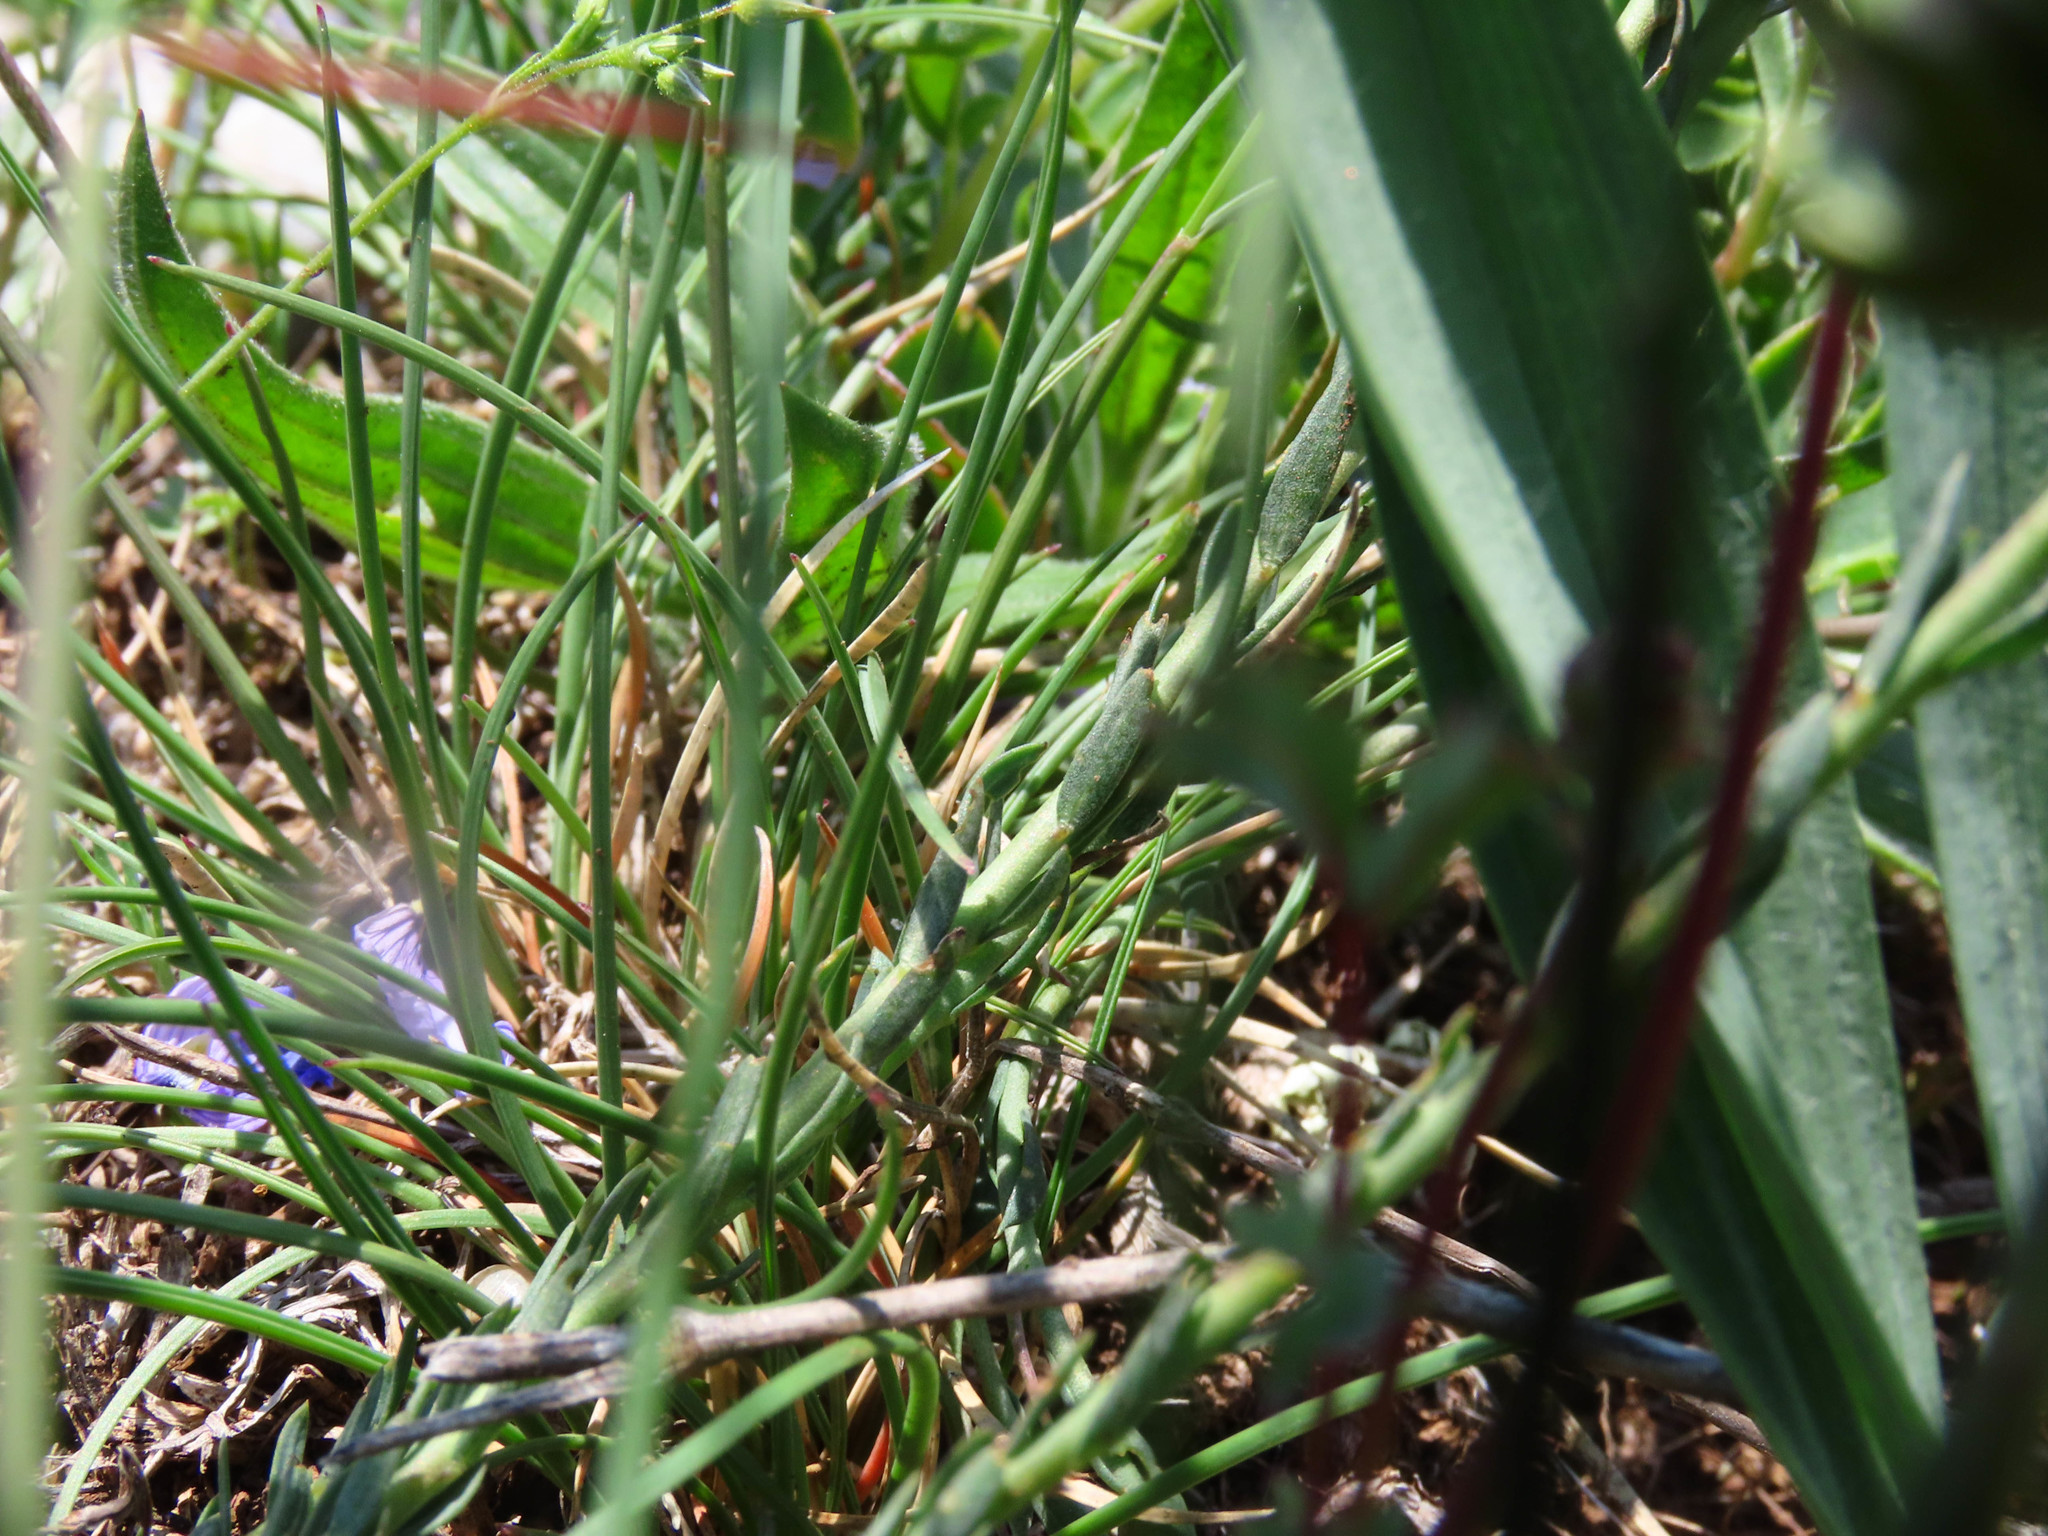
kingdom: Plantae
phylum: Tracheophyta
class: Magnoliopsida
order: Malpighiales
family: Linaceae
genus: Linum
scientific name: Linum alpinum
